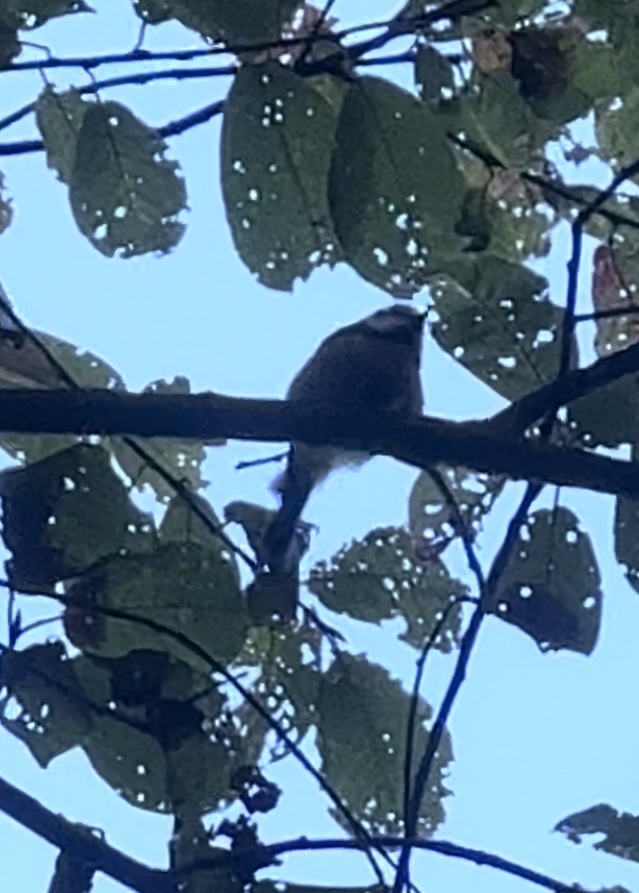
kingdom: Animalia
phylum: Chordata
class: Aves
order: Passeriformes
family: Paridae
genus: Cyanistes
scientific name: Cyanistes caeruleus
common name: Eurasian blue tit
